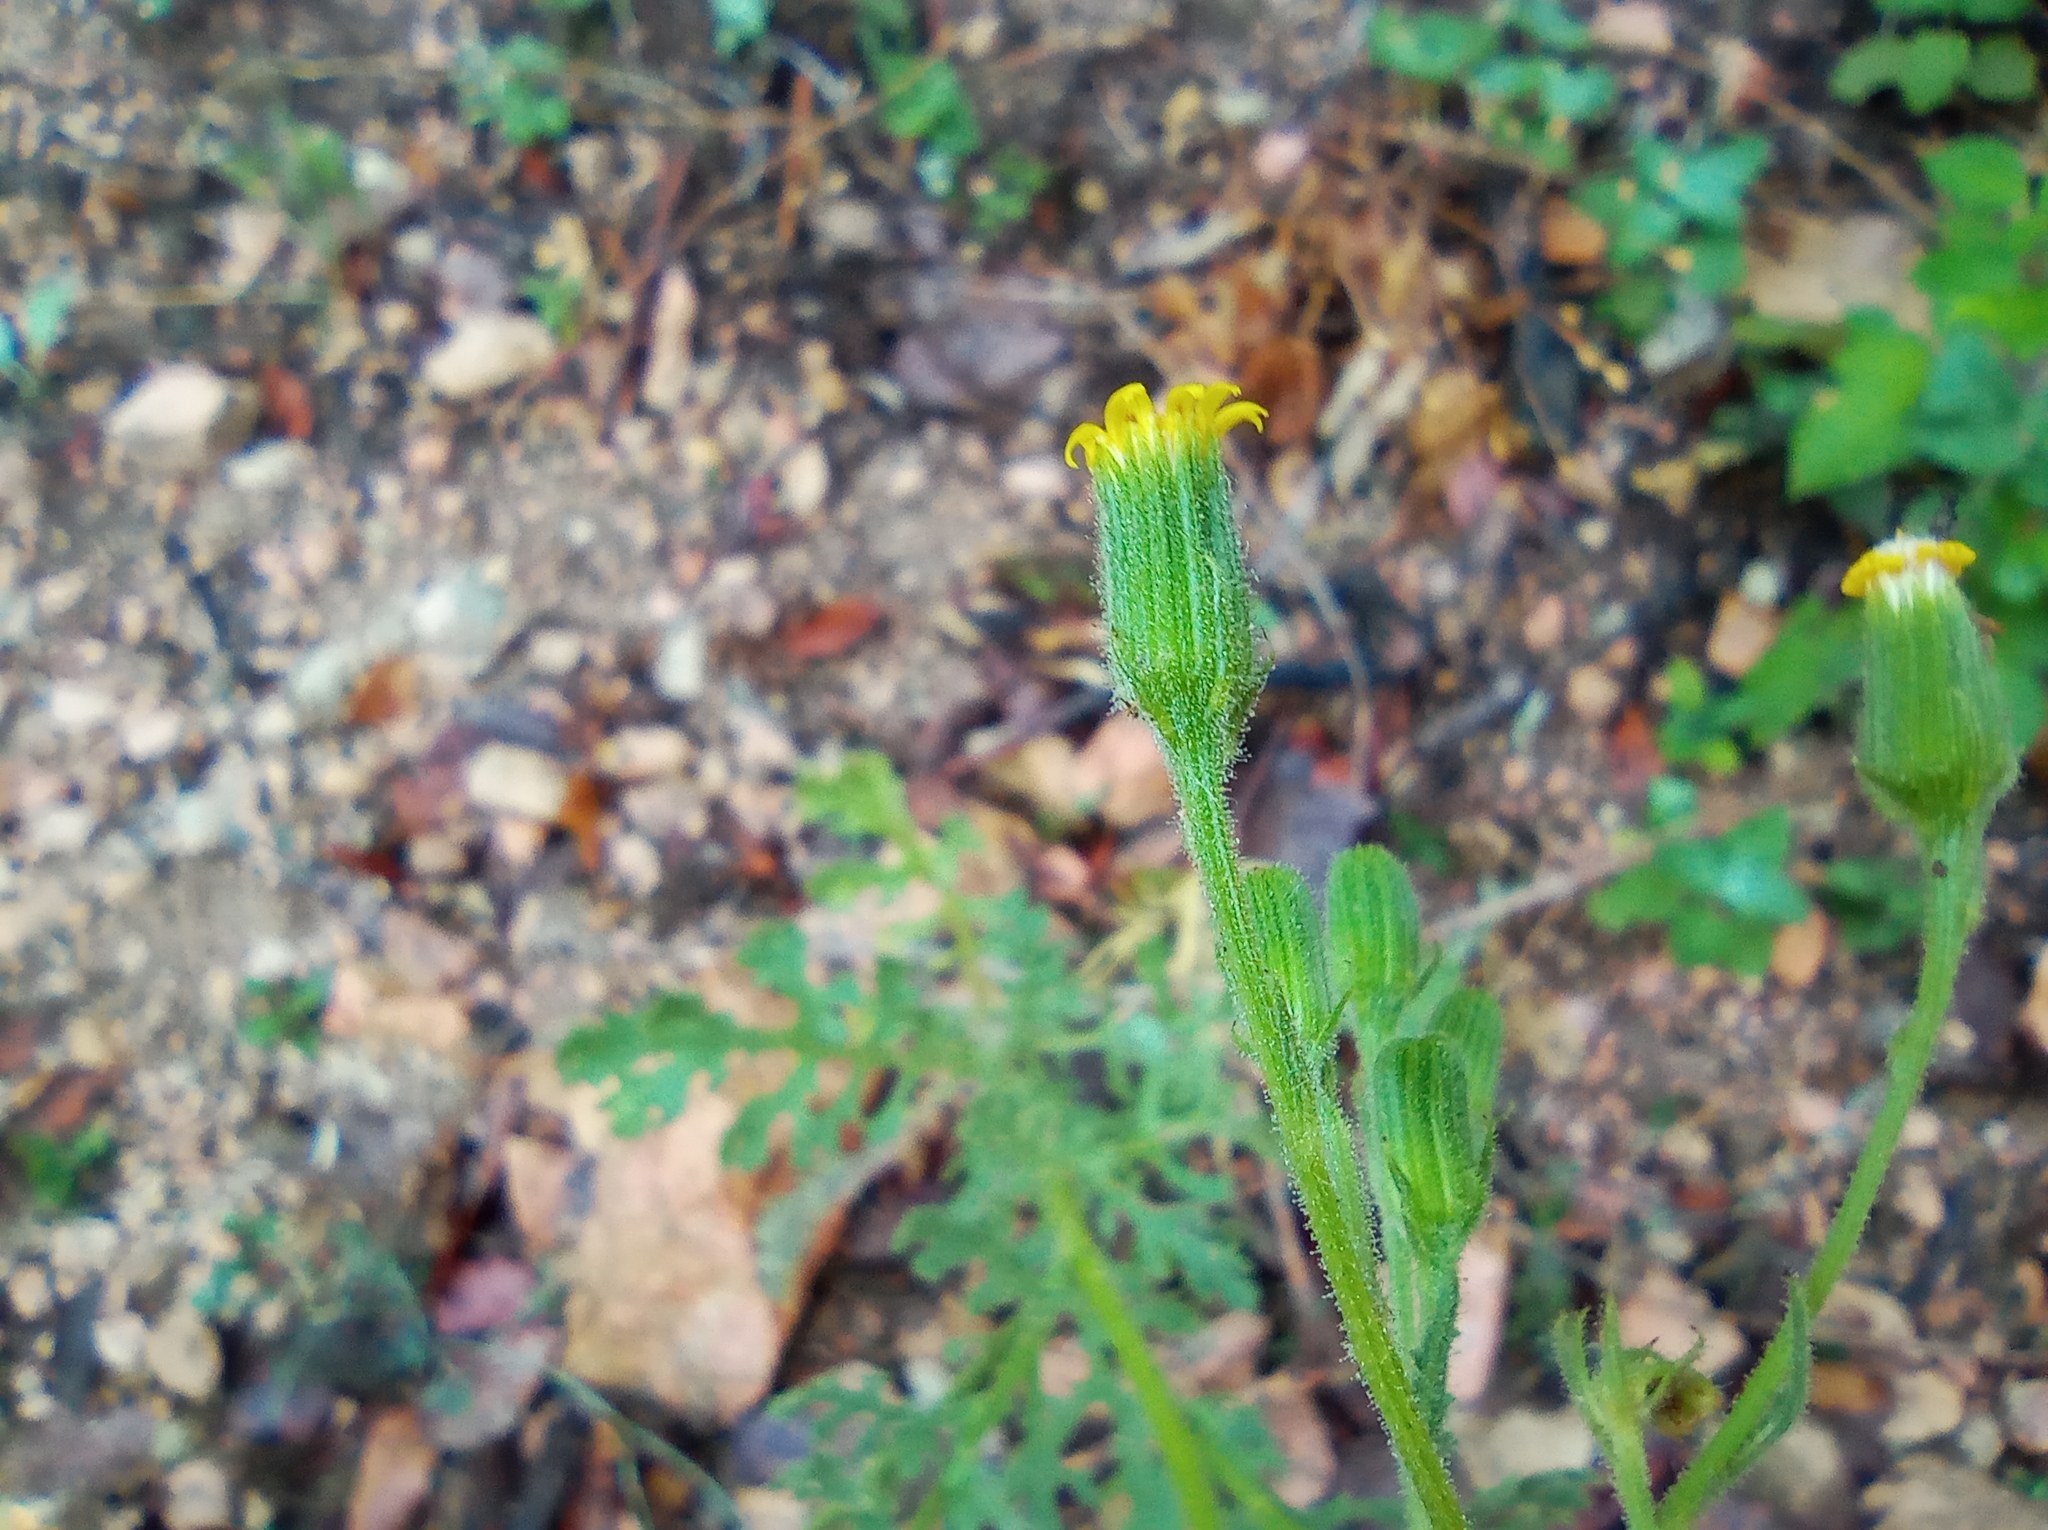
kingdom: Plantae
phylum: Tracheophyta
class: Magnoliopsida
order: Asterales
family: Asteraceae
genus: Senecio
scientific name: Senecio viscosus
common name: Sticky groundsel
